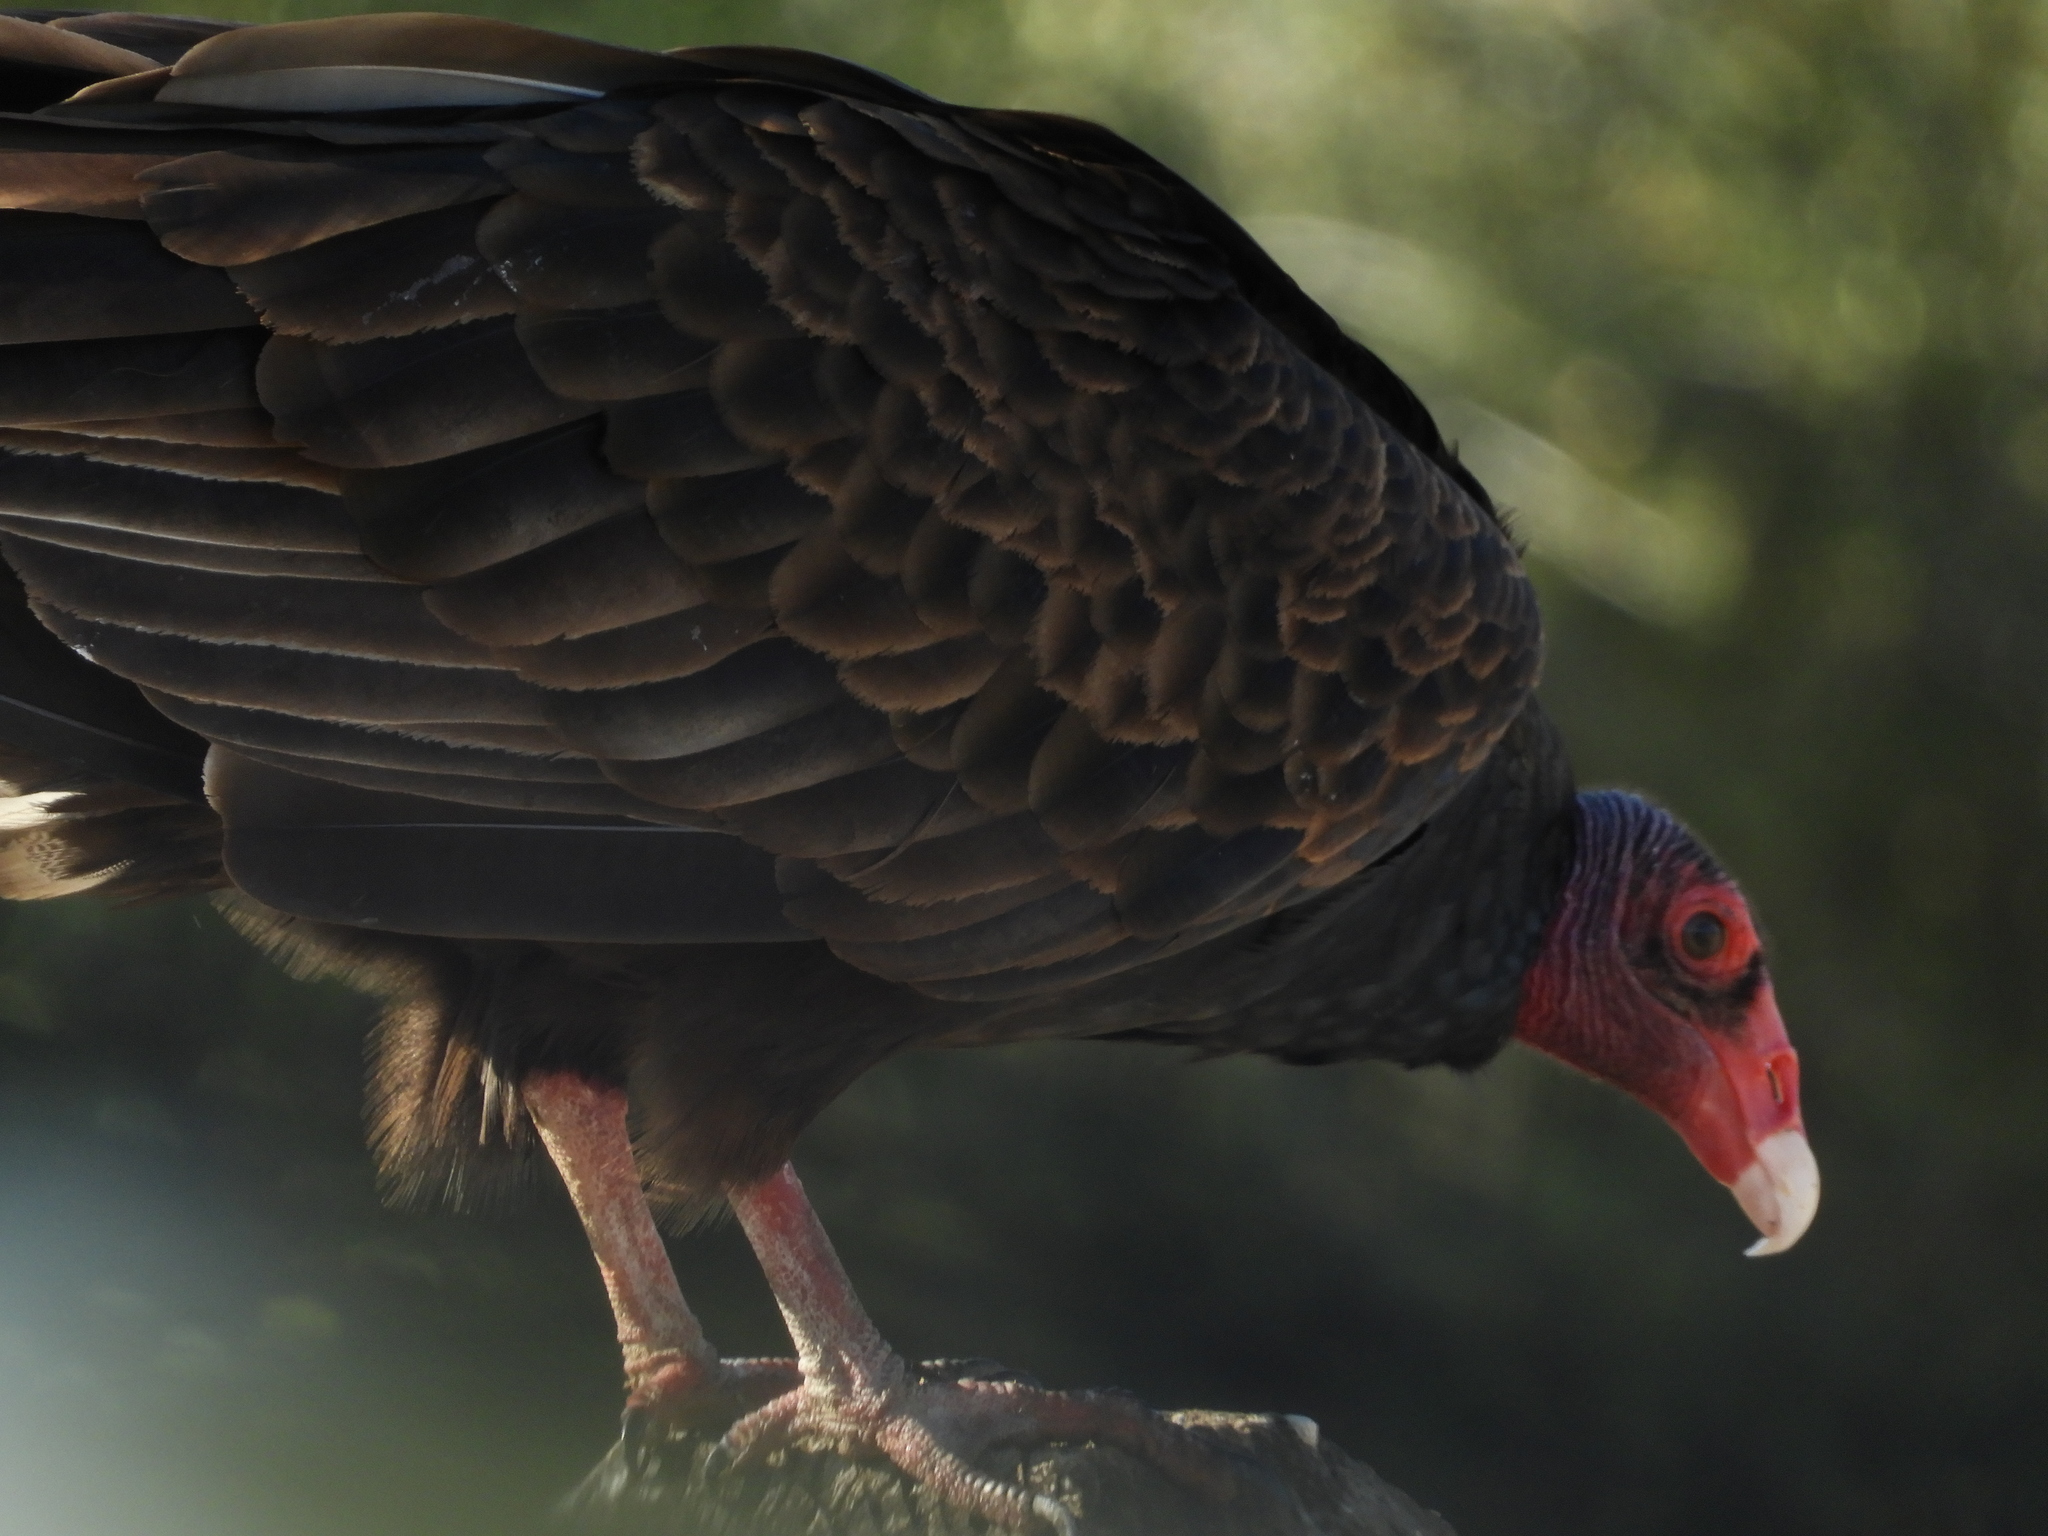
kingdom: Animalia
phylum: Chordata
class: Aves
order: Accipitriformes
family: Cathartidae
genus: Cathartes
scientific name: Cathartes aura
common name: Turkey vulture
